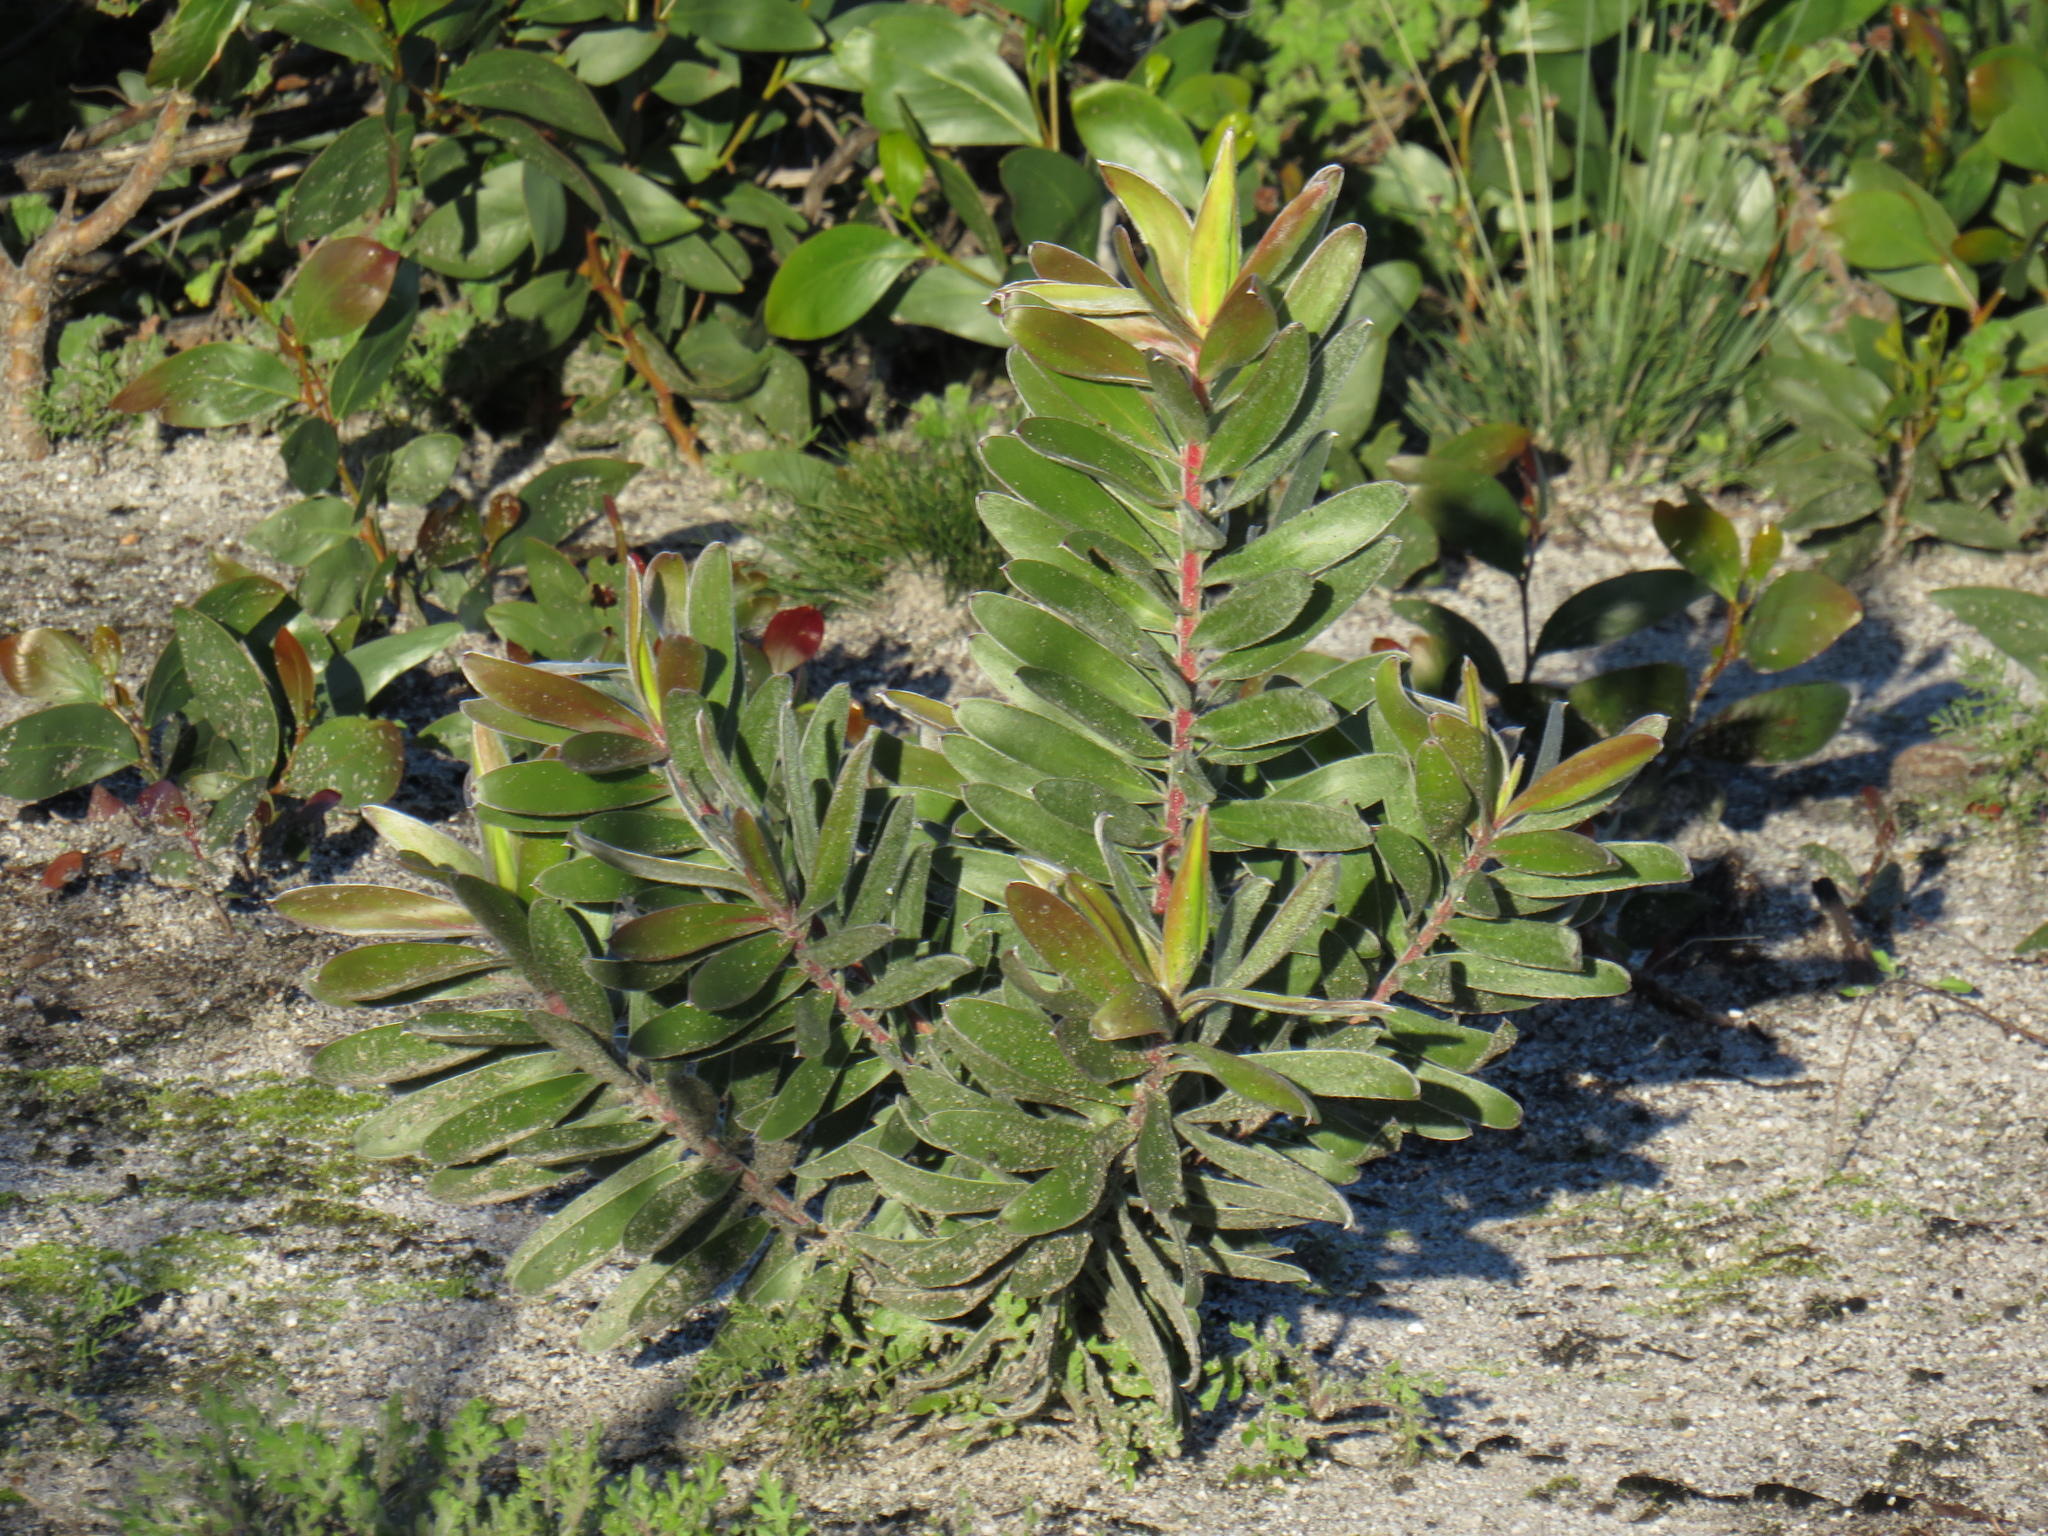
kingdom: Plantae
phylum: Tracheophyta
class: Magnoliopsida
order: Proteales
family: Proteaceae
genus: Leucadendron
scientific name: Leucadendron laureolum
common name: Golden sunshinebush
